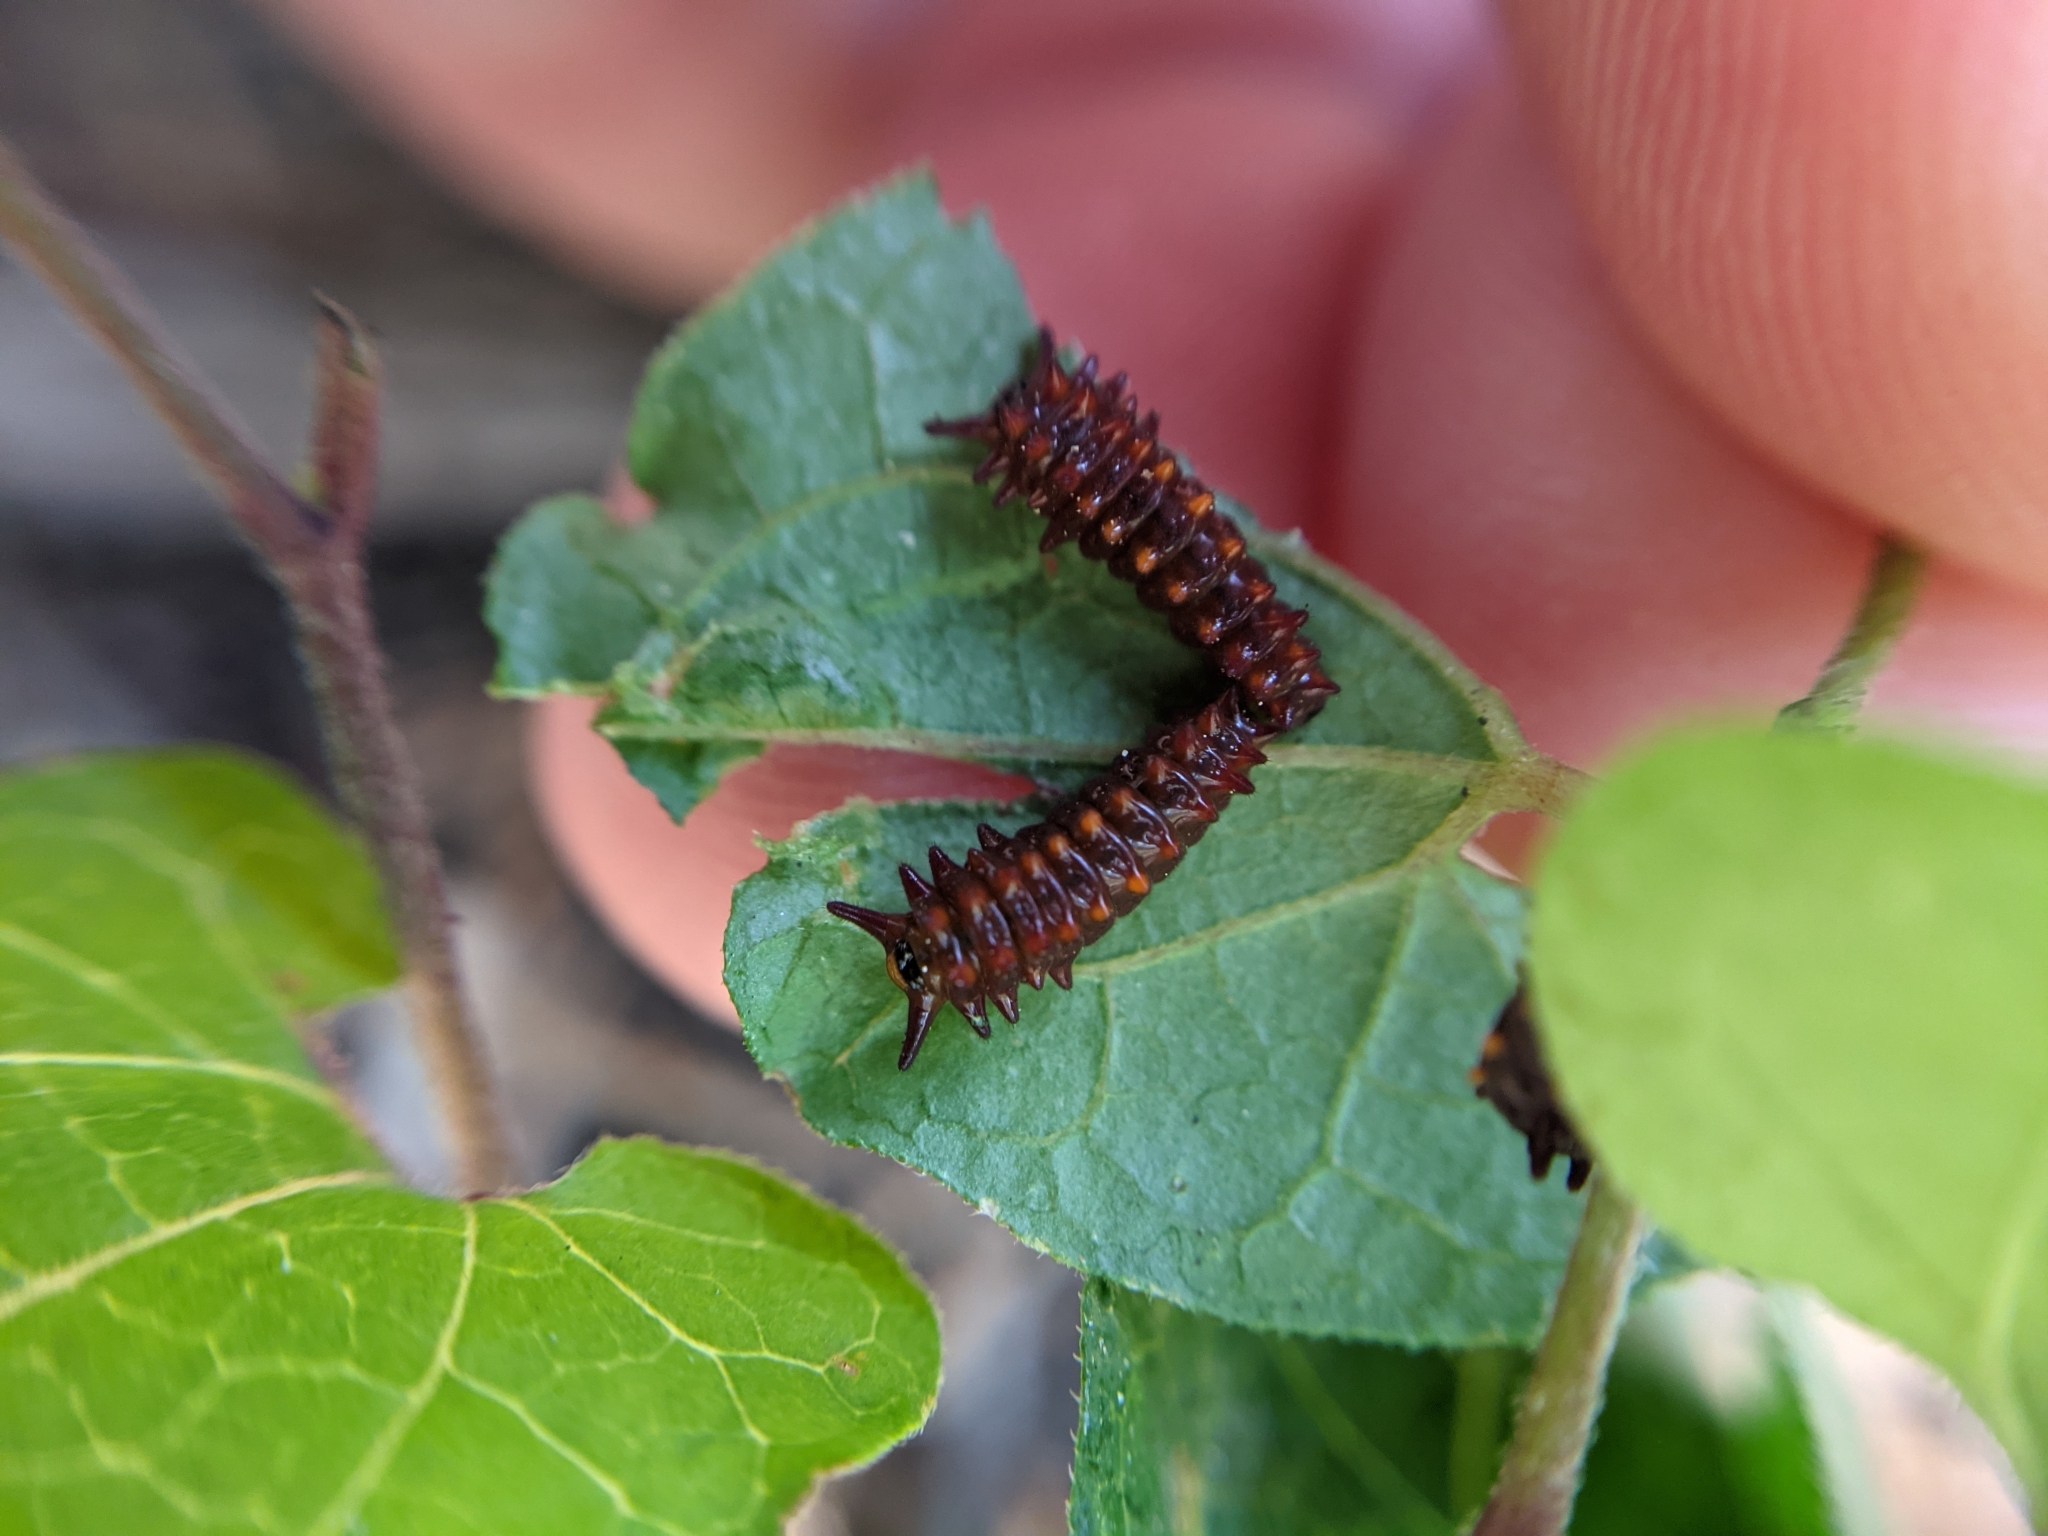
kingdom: Animalia
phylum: Arthropoda
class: Insecta
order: Lepidoptera
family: Papilionidae
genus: Battus
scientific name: Battus philenor
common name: Pipevine swallowtail
